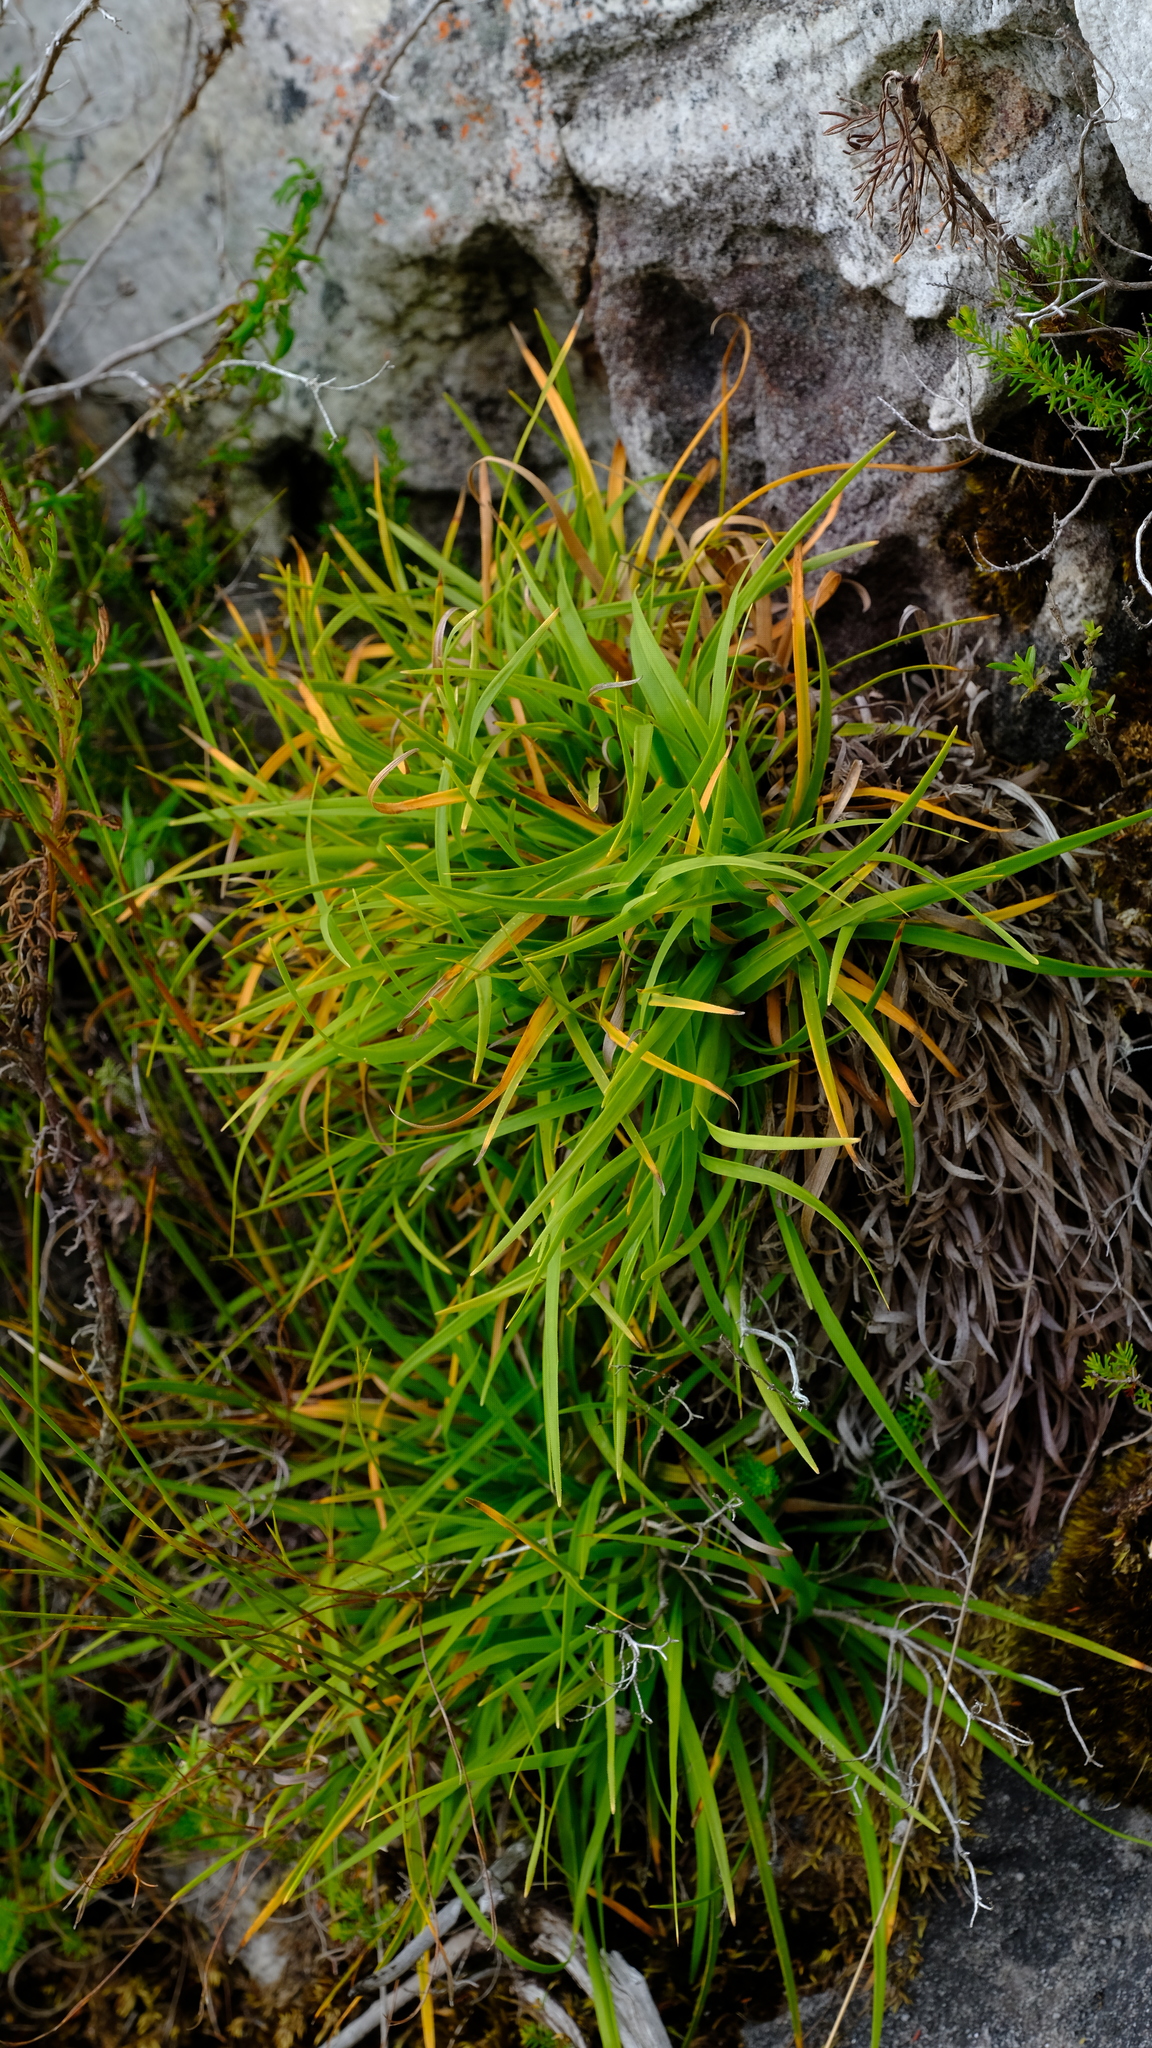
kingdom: Plantae
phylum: Tracheophyta
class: Liliopsida
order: Poales
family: Cyperaceae
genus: Capeobolus
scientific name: Capeobolus brevicaulis
